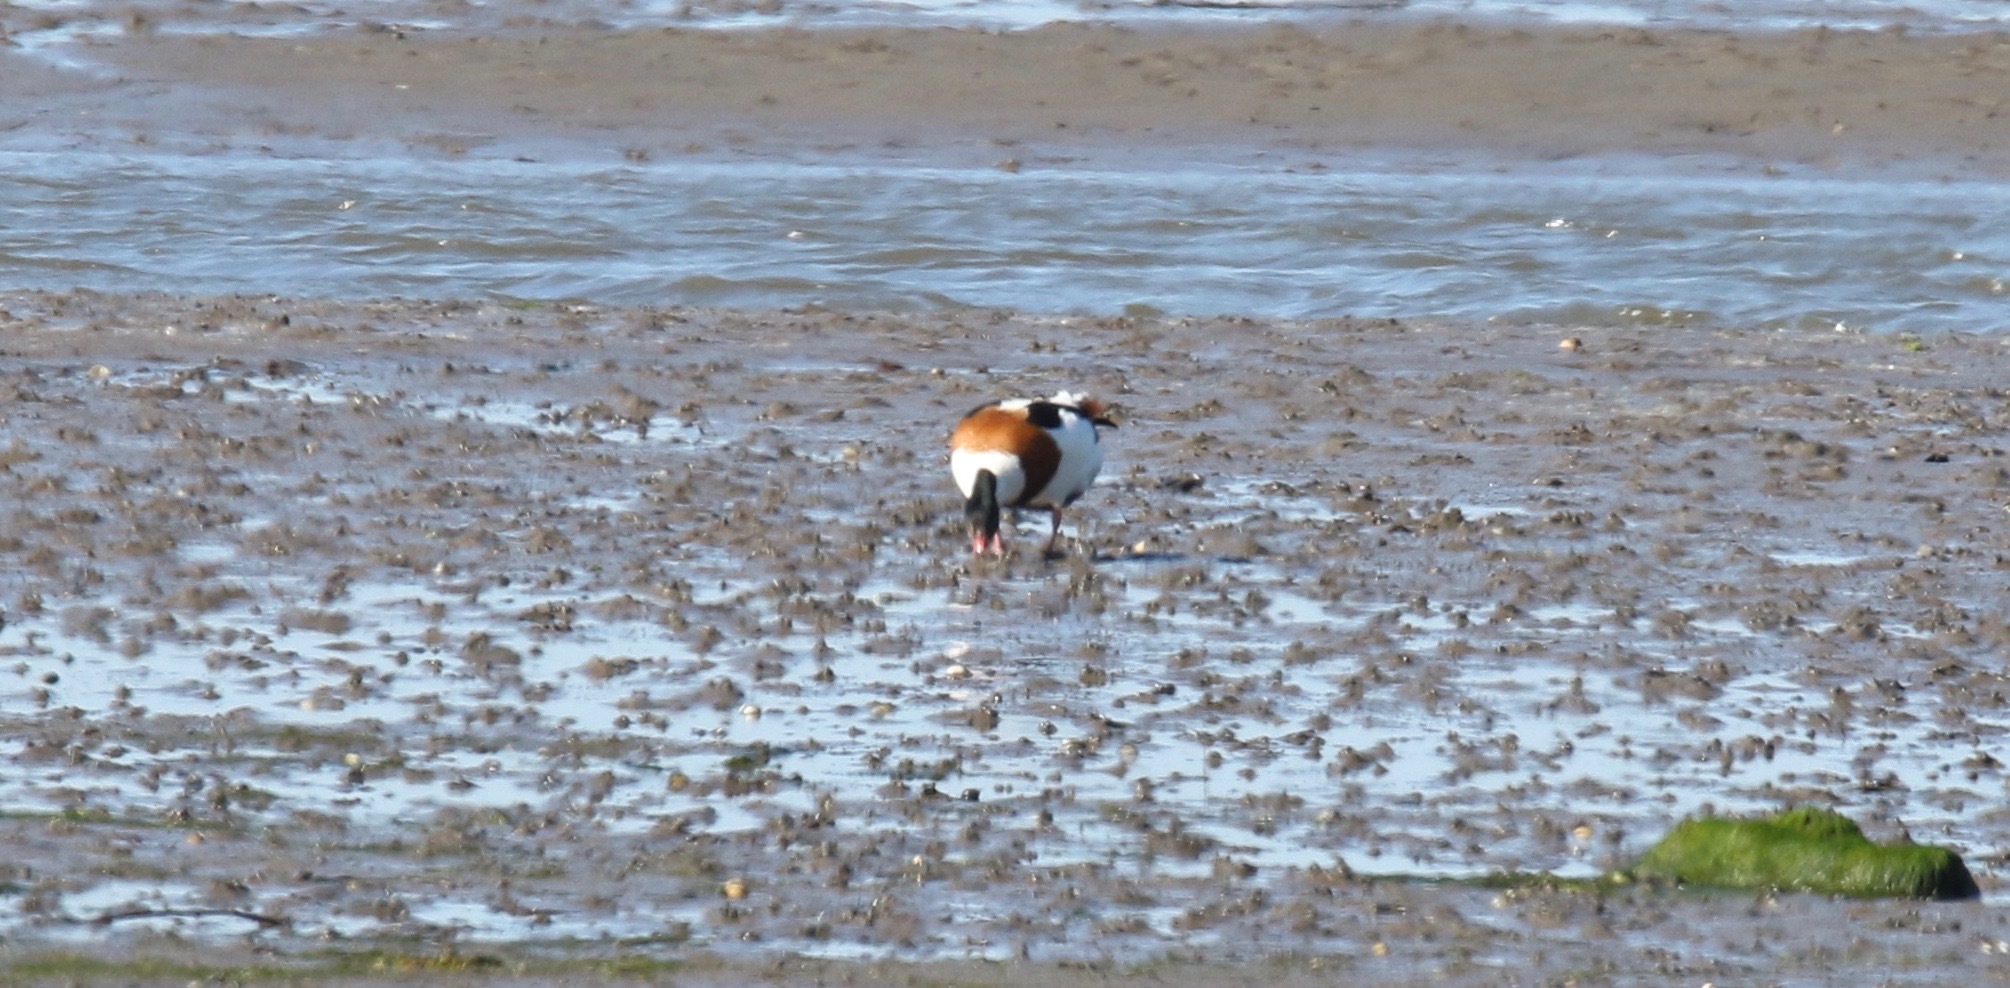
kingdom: Animalia
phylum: Chordata
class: Aves
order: Anseriformes
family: Anatidae
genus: Tadorna
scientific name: Tadorna tadorna
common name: Common shelduck
